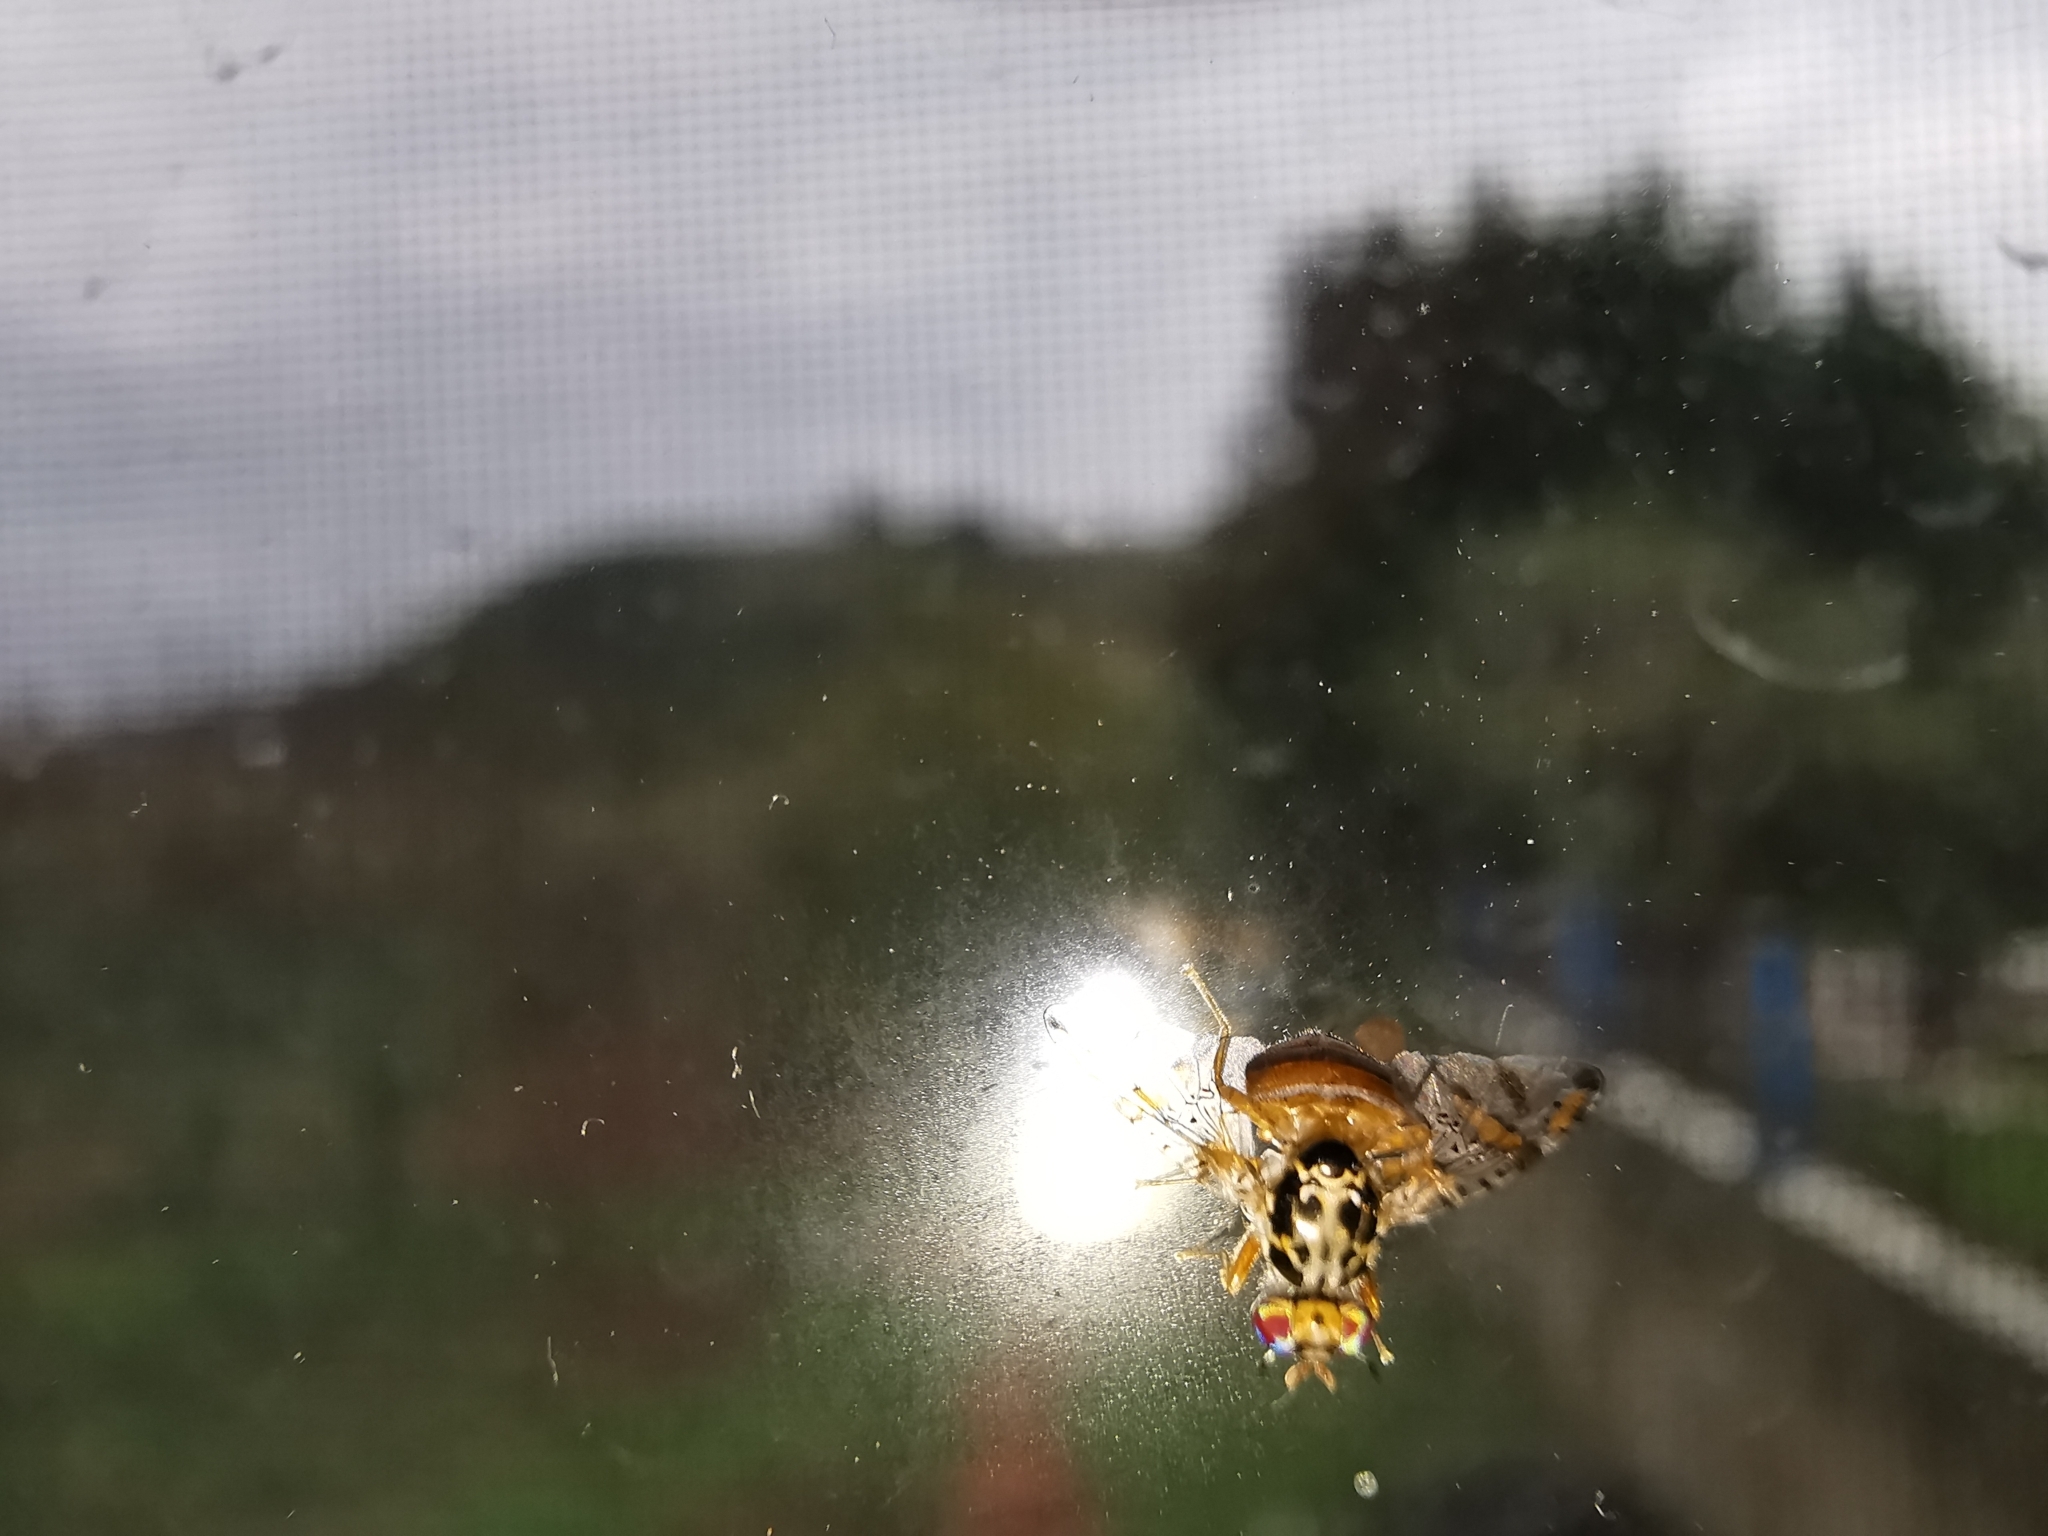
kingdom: Animalia
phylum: Arthropoda
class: Insecta
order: Diptera
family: Tephritidae
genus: Ceratitis
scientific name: Ceratitis capitata
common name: Mediterranean fruit fly
